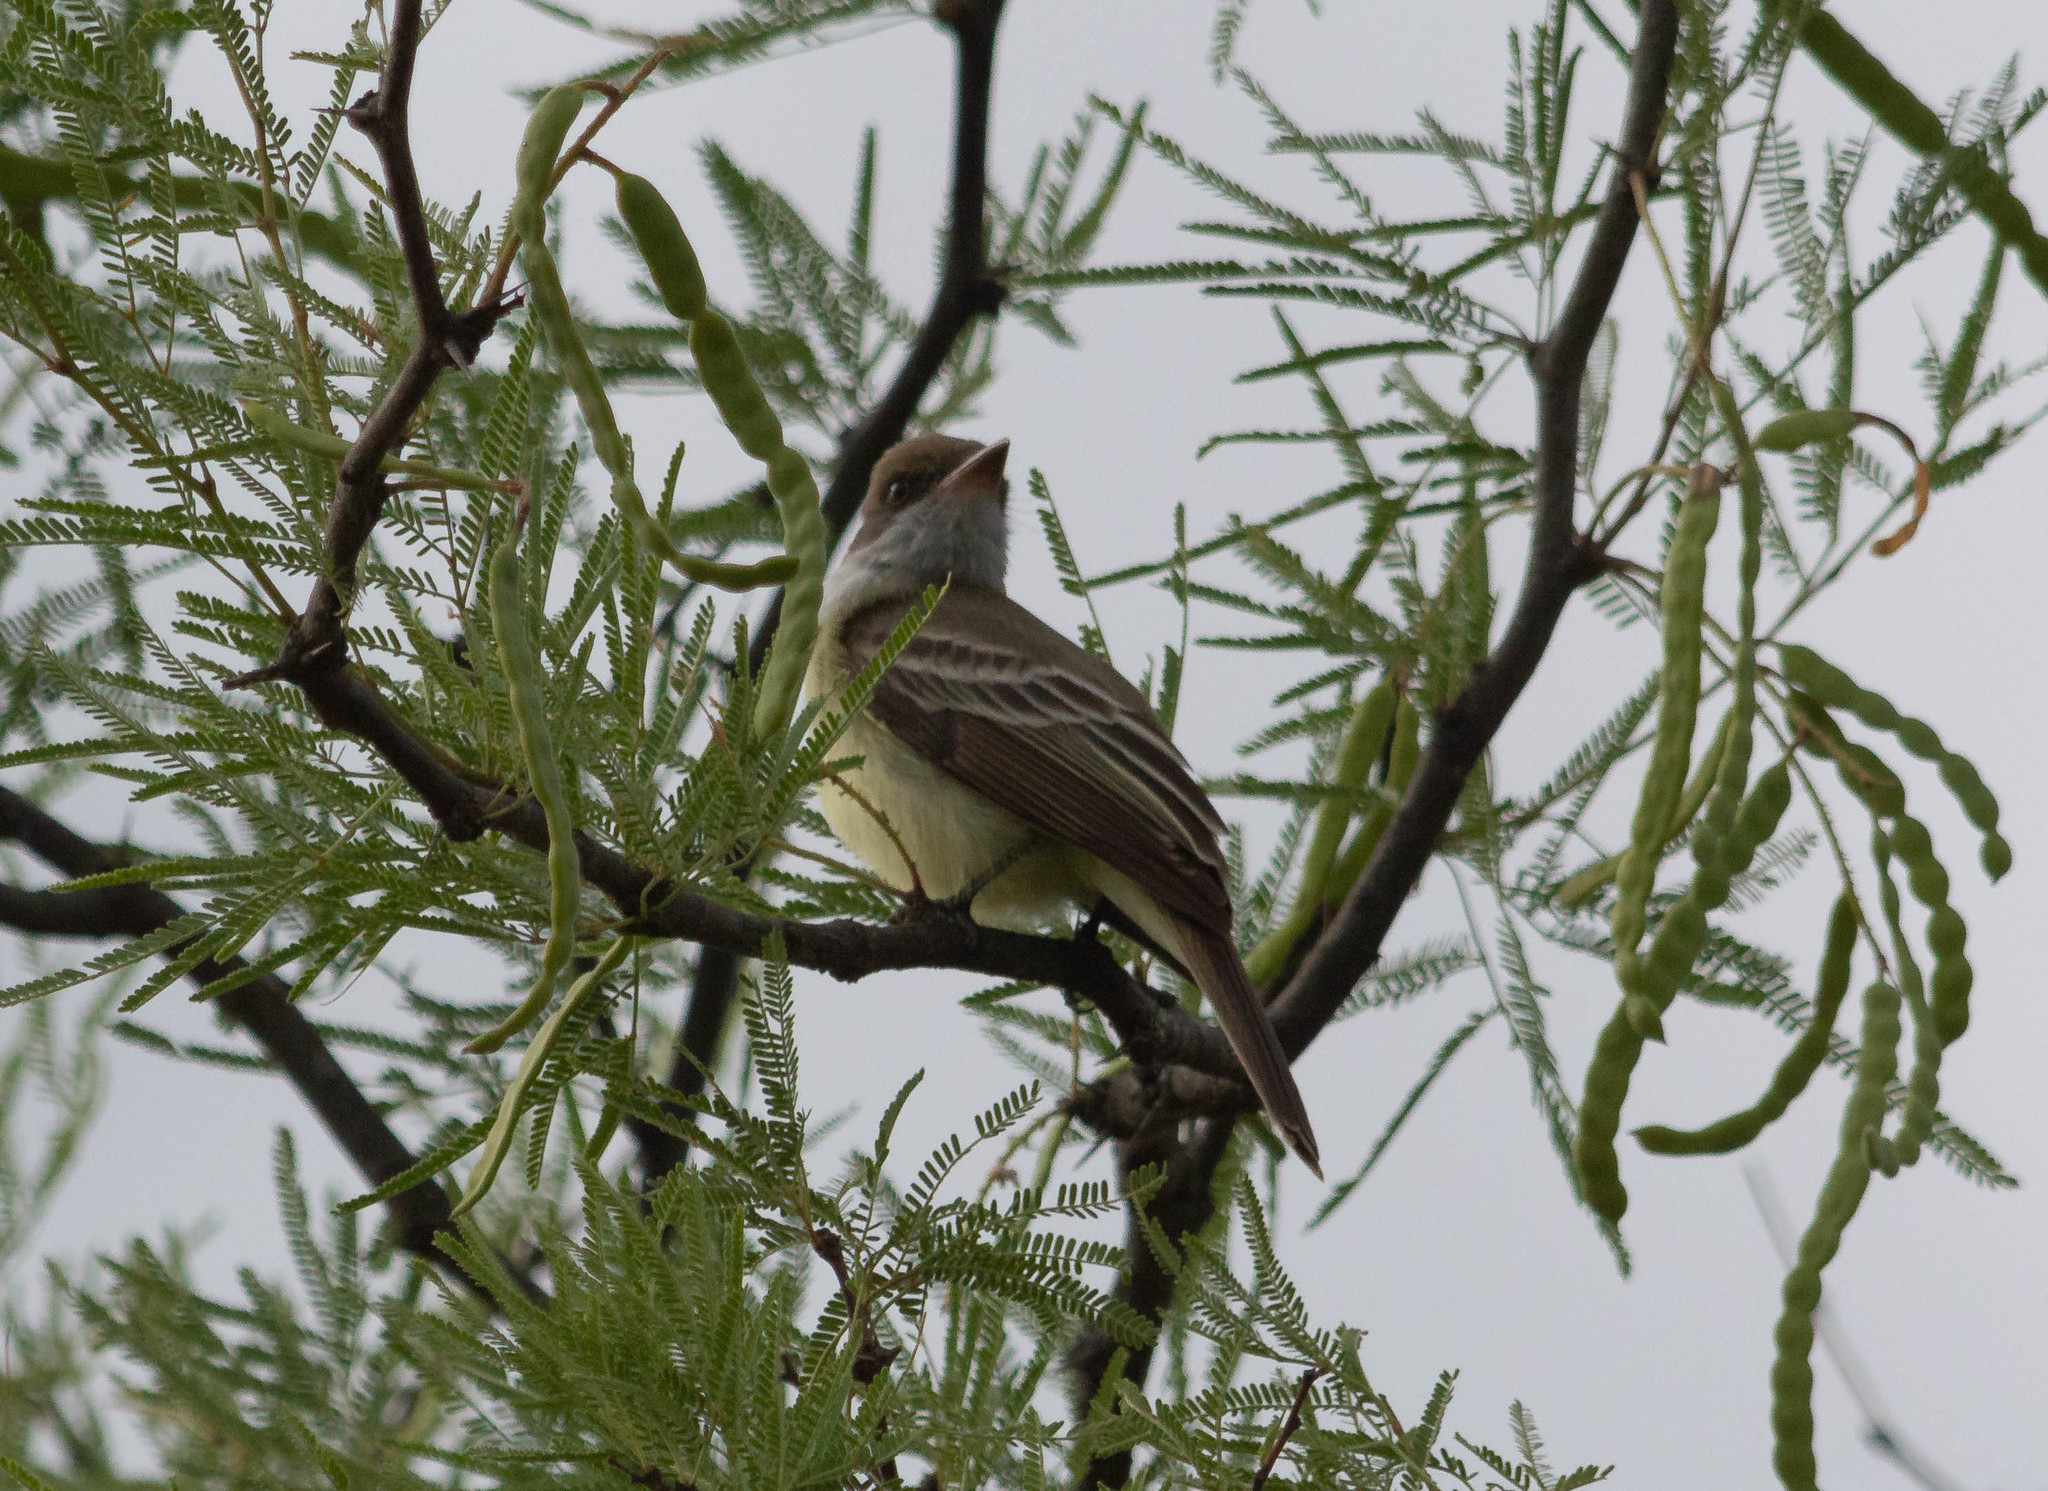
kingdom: Animalia
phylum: Chordata
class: Aves
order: Passeriformes
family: Tyrannidae
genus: Myiarchus
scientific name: Myiarchus swainsoni
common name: Swainson's flycatcher
